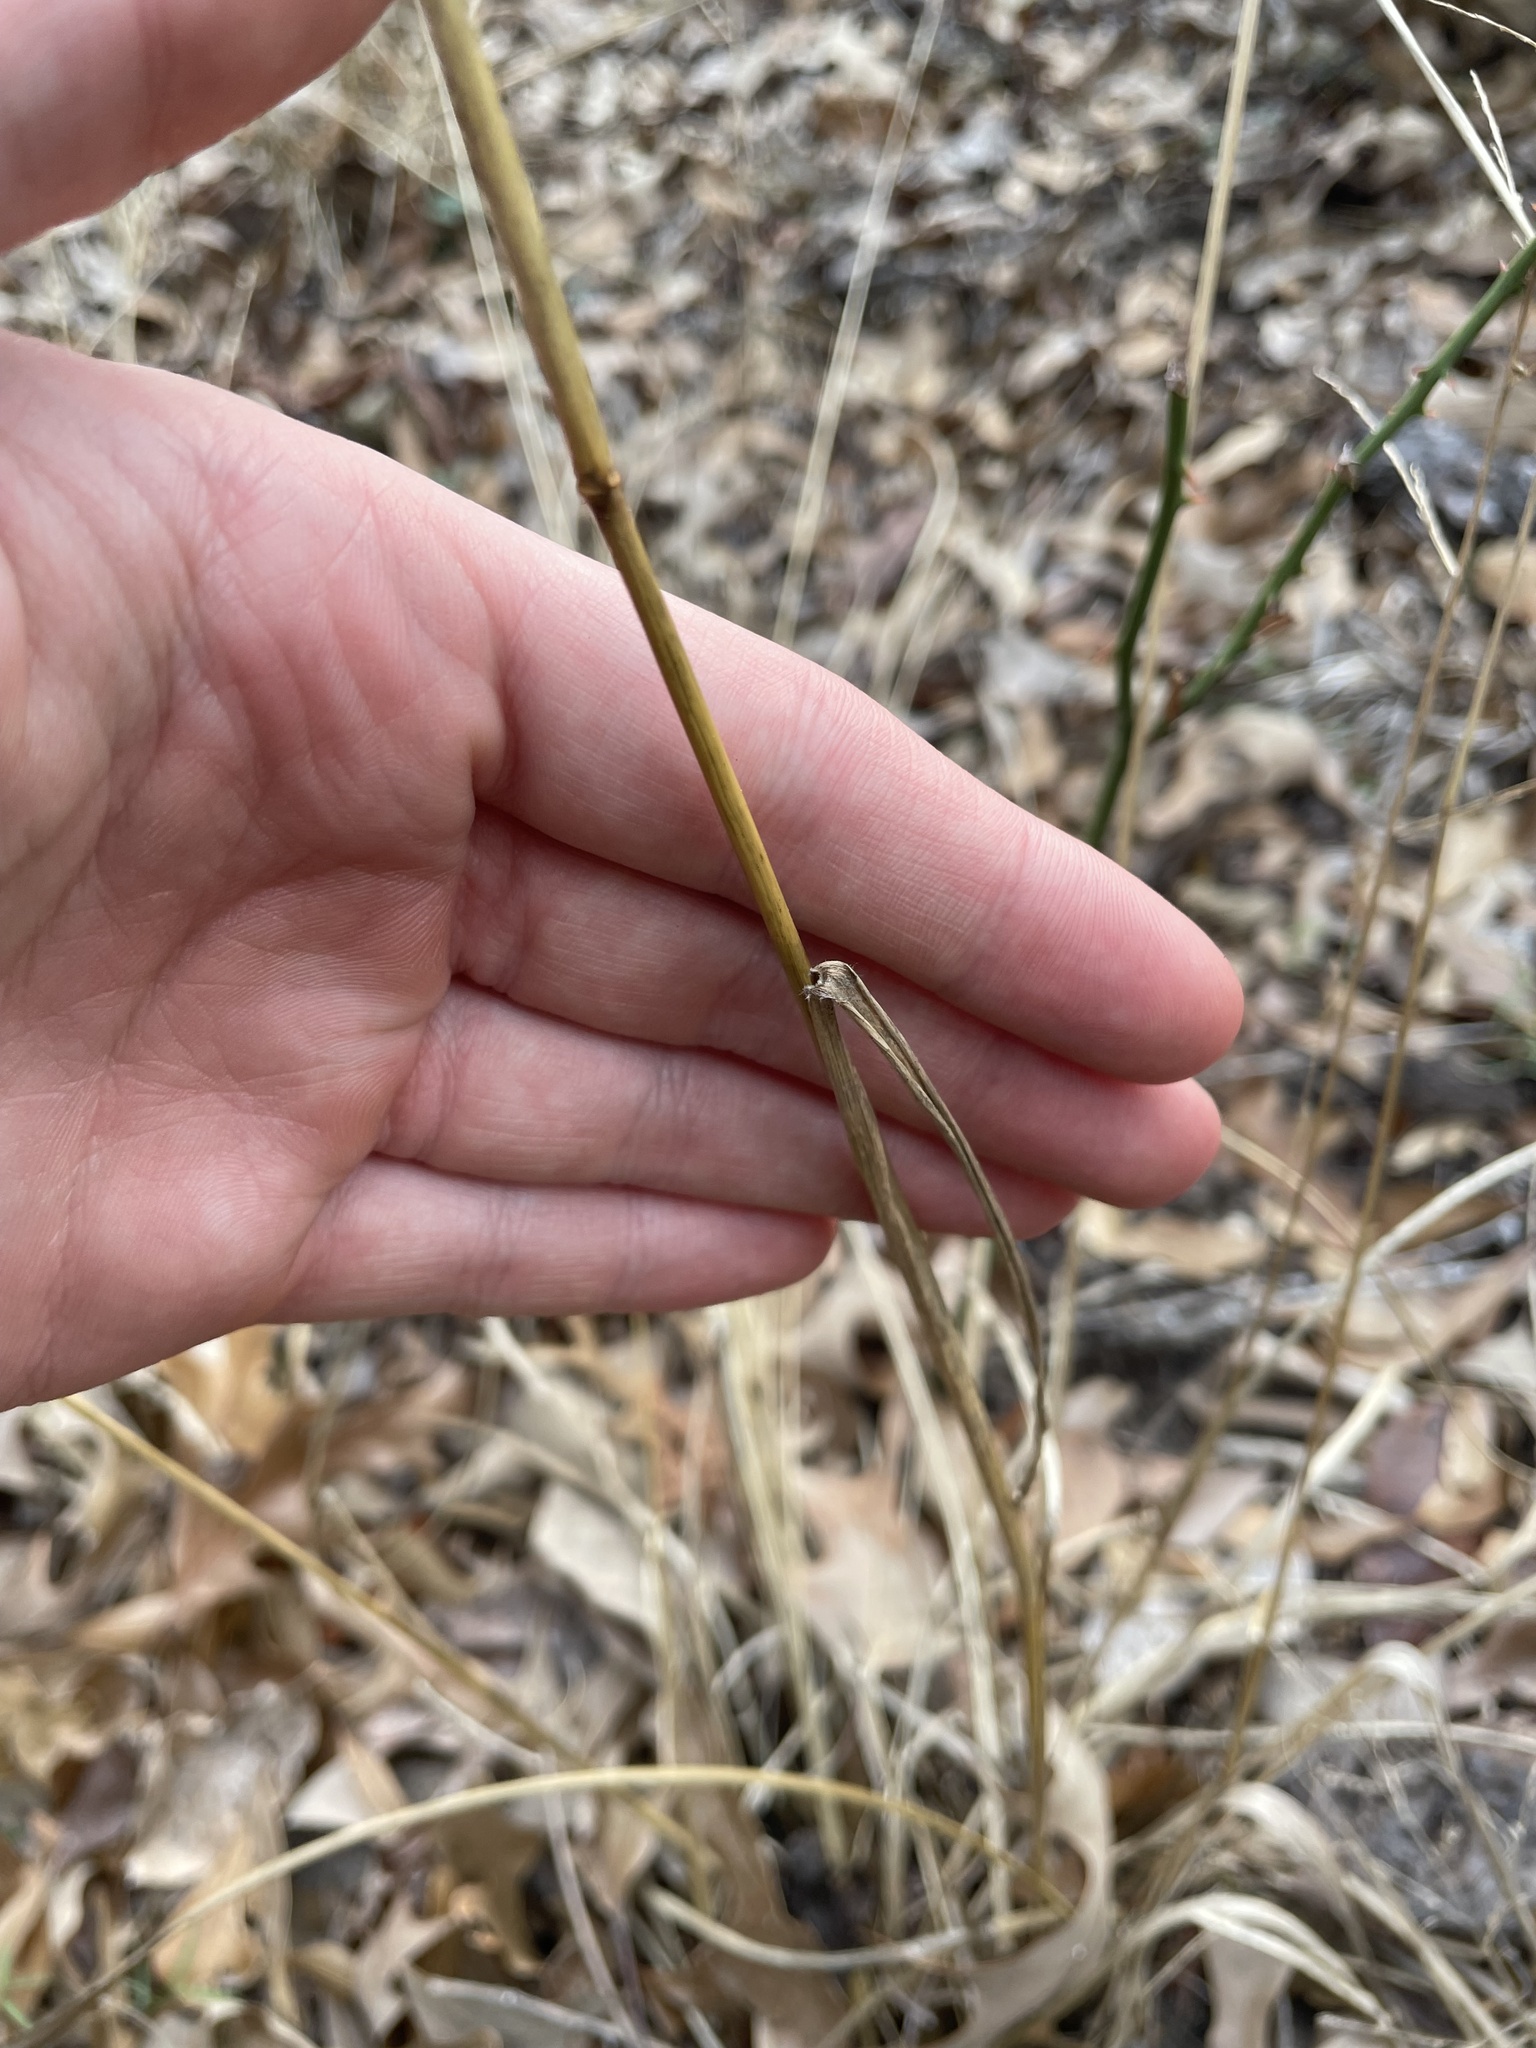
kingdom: Plantae
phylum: Tracheophyta
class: Liliopsida
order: Poales
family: Poaceae
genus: Tridens
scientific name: Tridens flavus
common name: Purpletop
